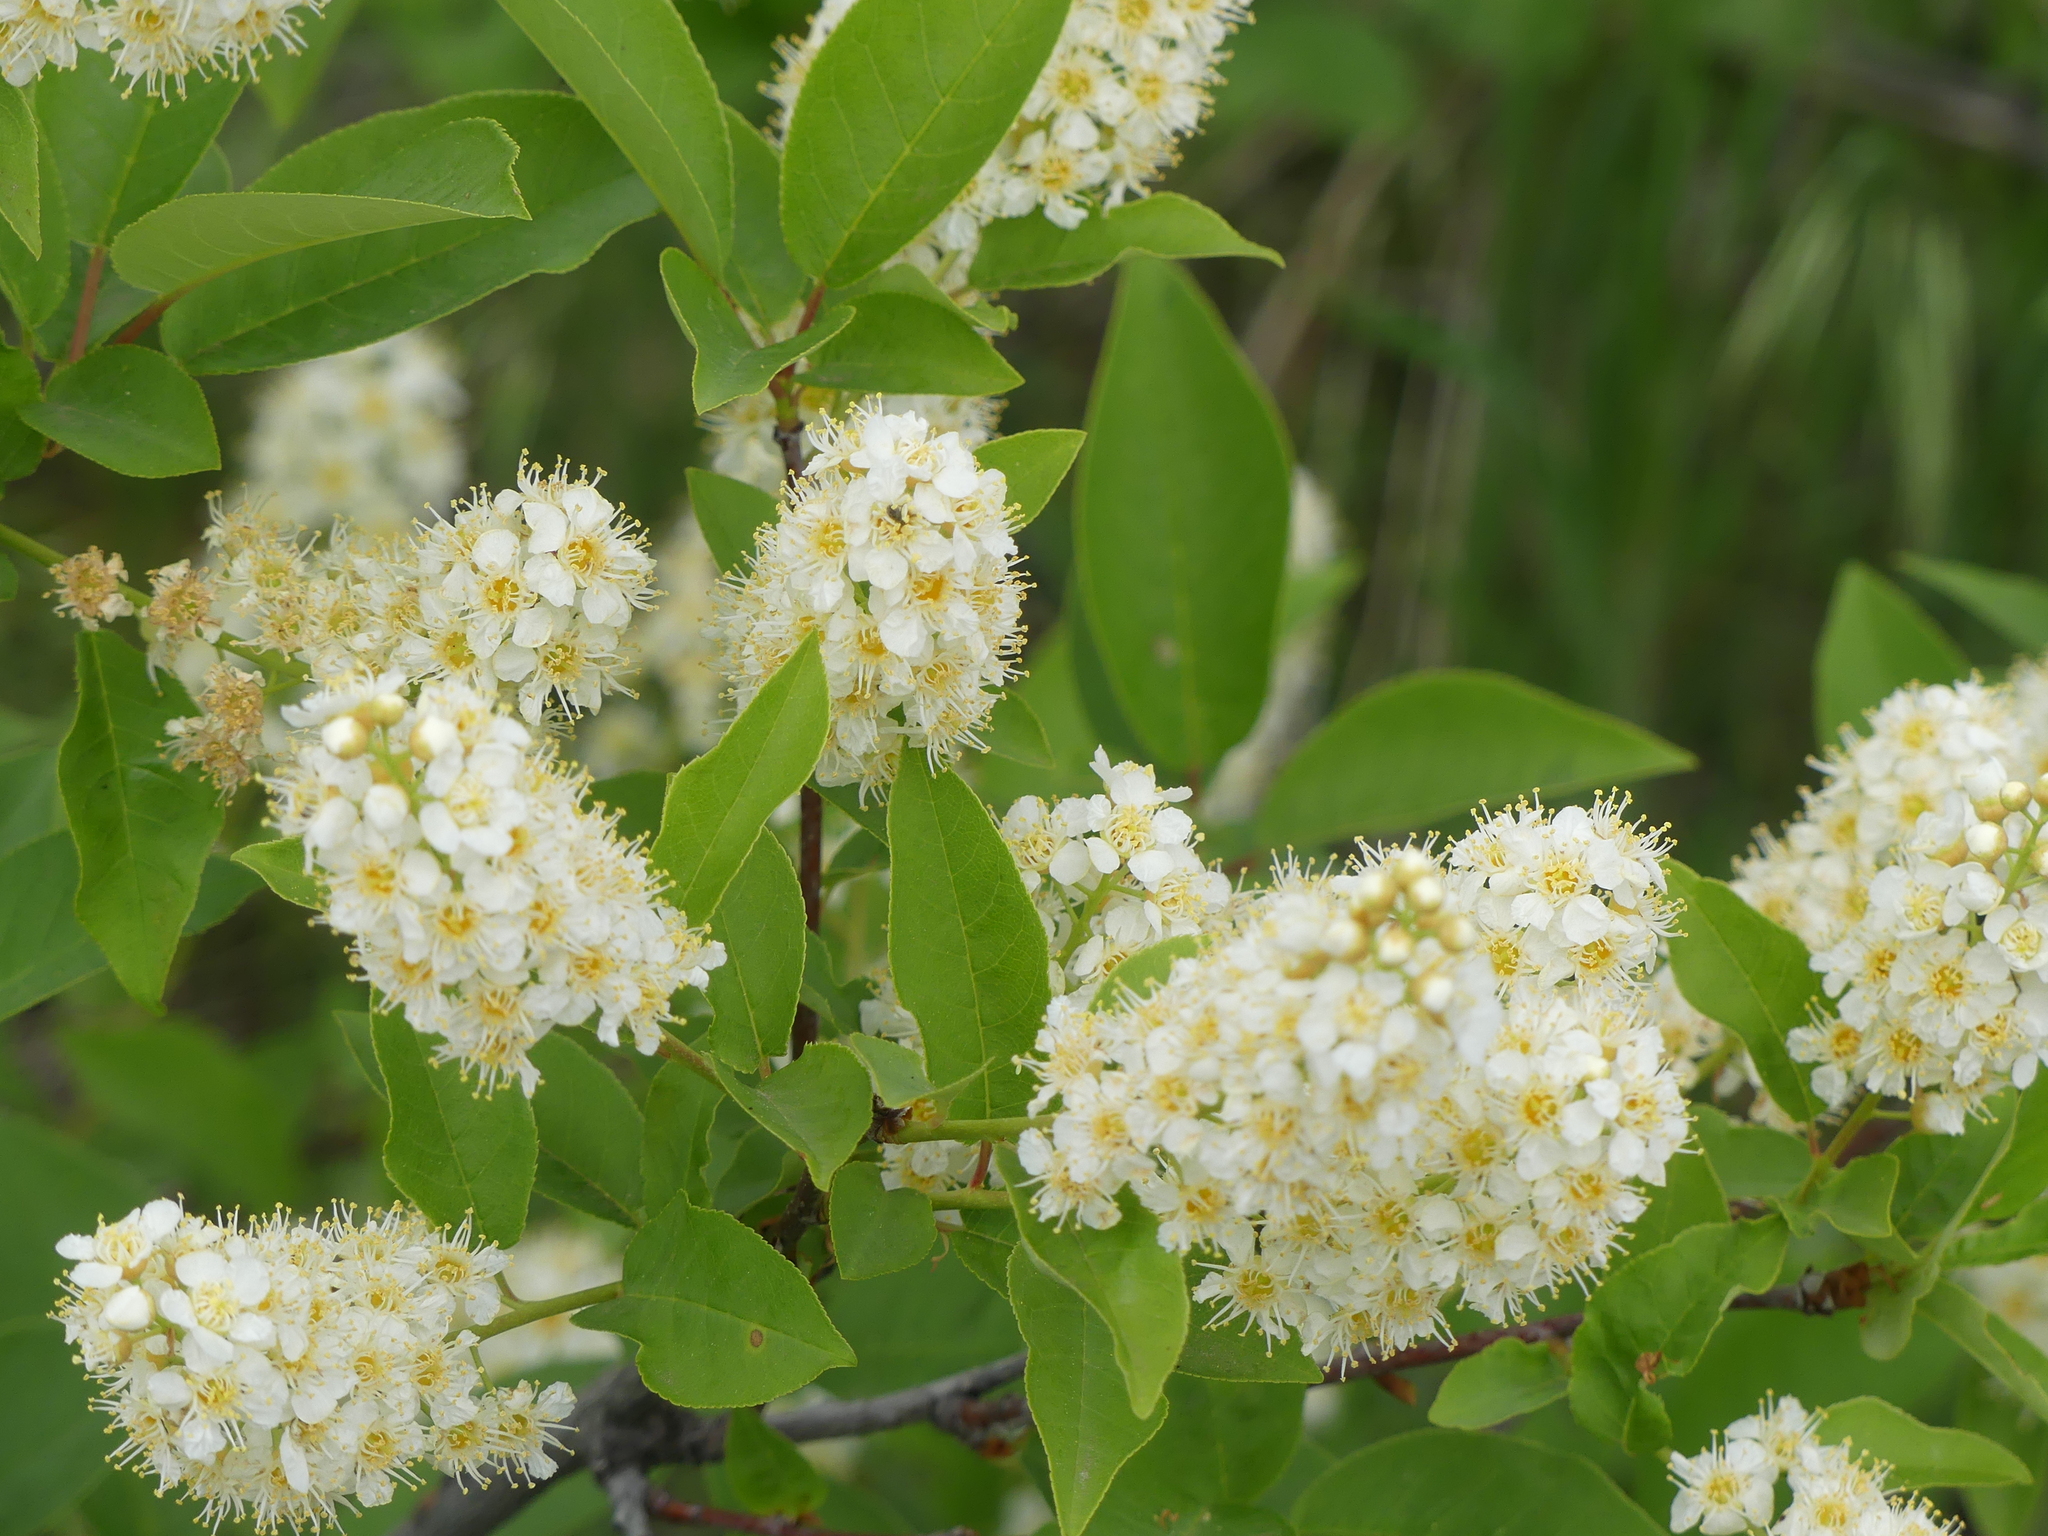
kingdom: Plantae
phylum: Tracheophyta
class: Magnoliopsida
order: Rosales
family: Rosaceae
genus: Prunus
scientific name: Prunus virginiana
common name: Chokecherry
